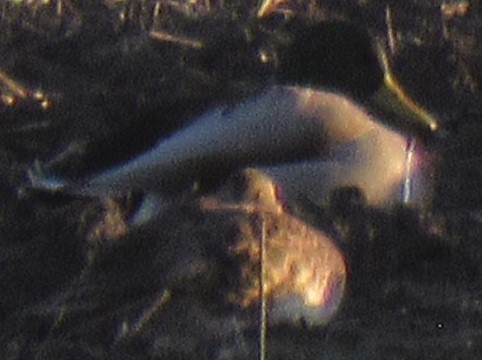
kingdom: Animalia
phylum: Chordata
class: Aves
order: Anseriformes
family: Anatidae
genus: Anas
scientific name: Anas platyrhynchos
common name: Mallard
